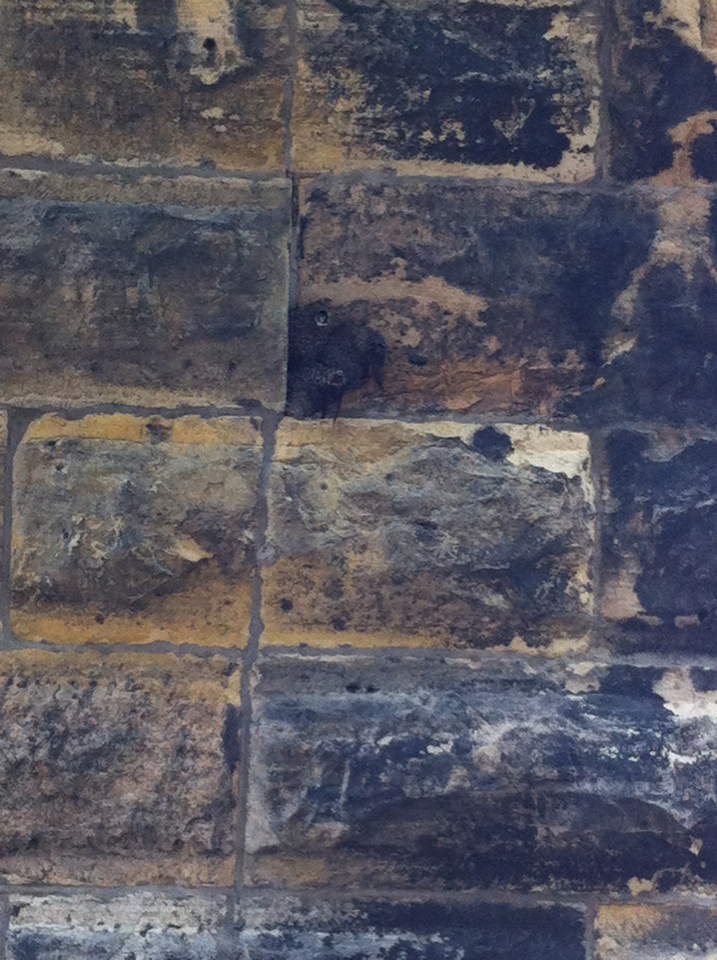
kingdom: Animalia
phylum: Chordata
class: Aves
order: Passeriformes
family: Hirundinidae
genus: Petrochelidon
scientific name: Petrochelidon pyrrhonota
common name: American cliff swallow
